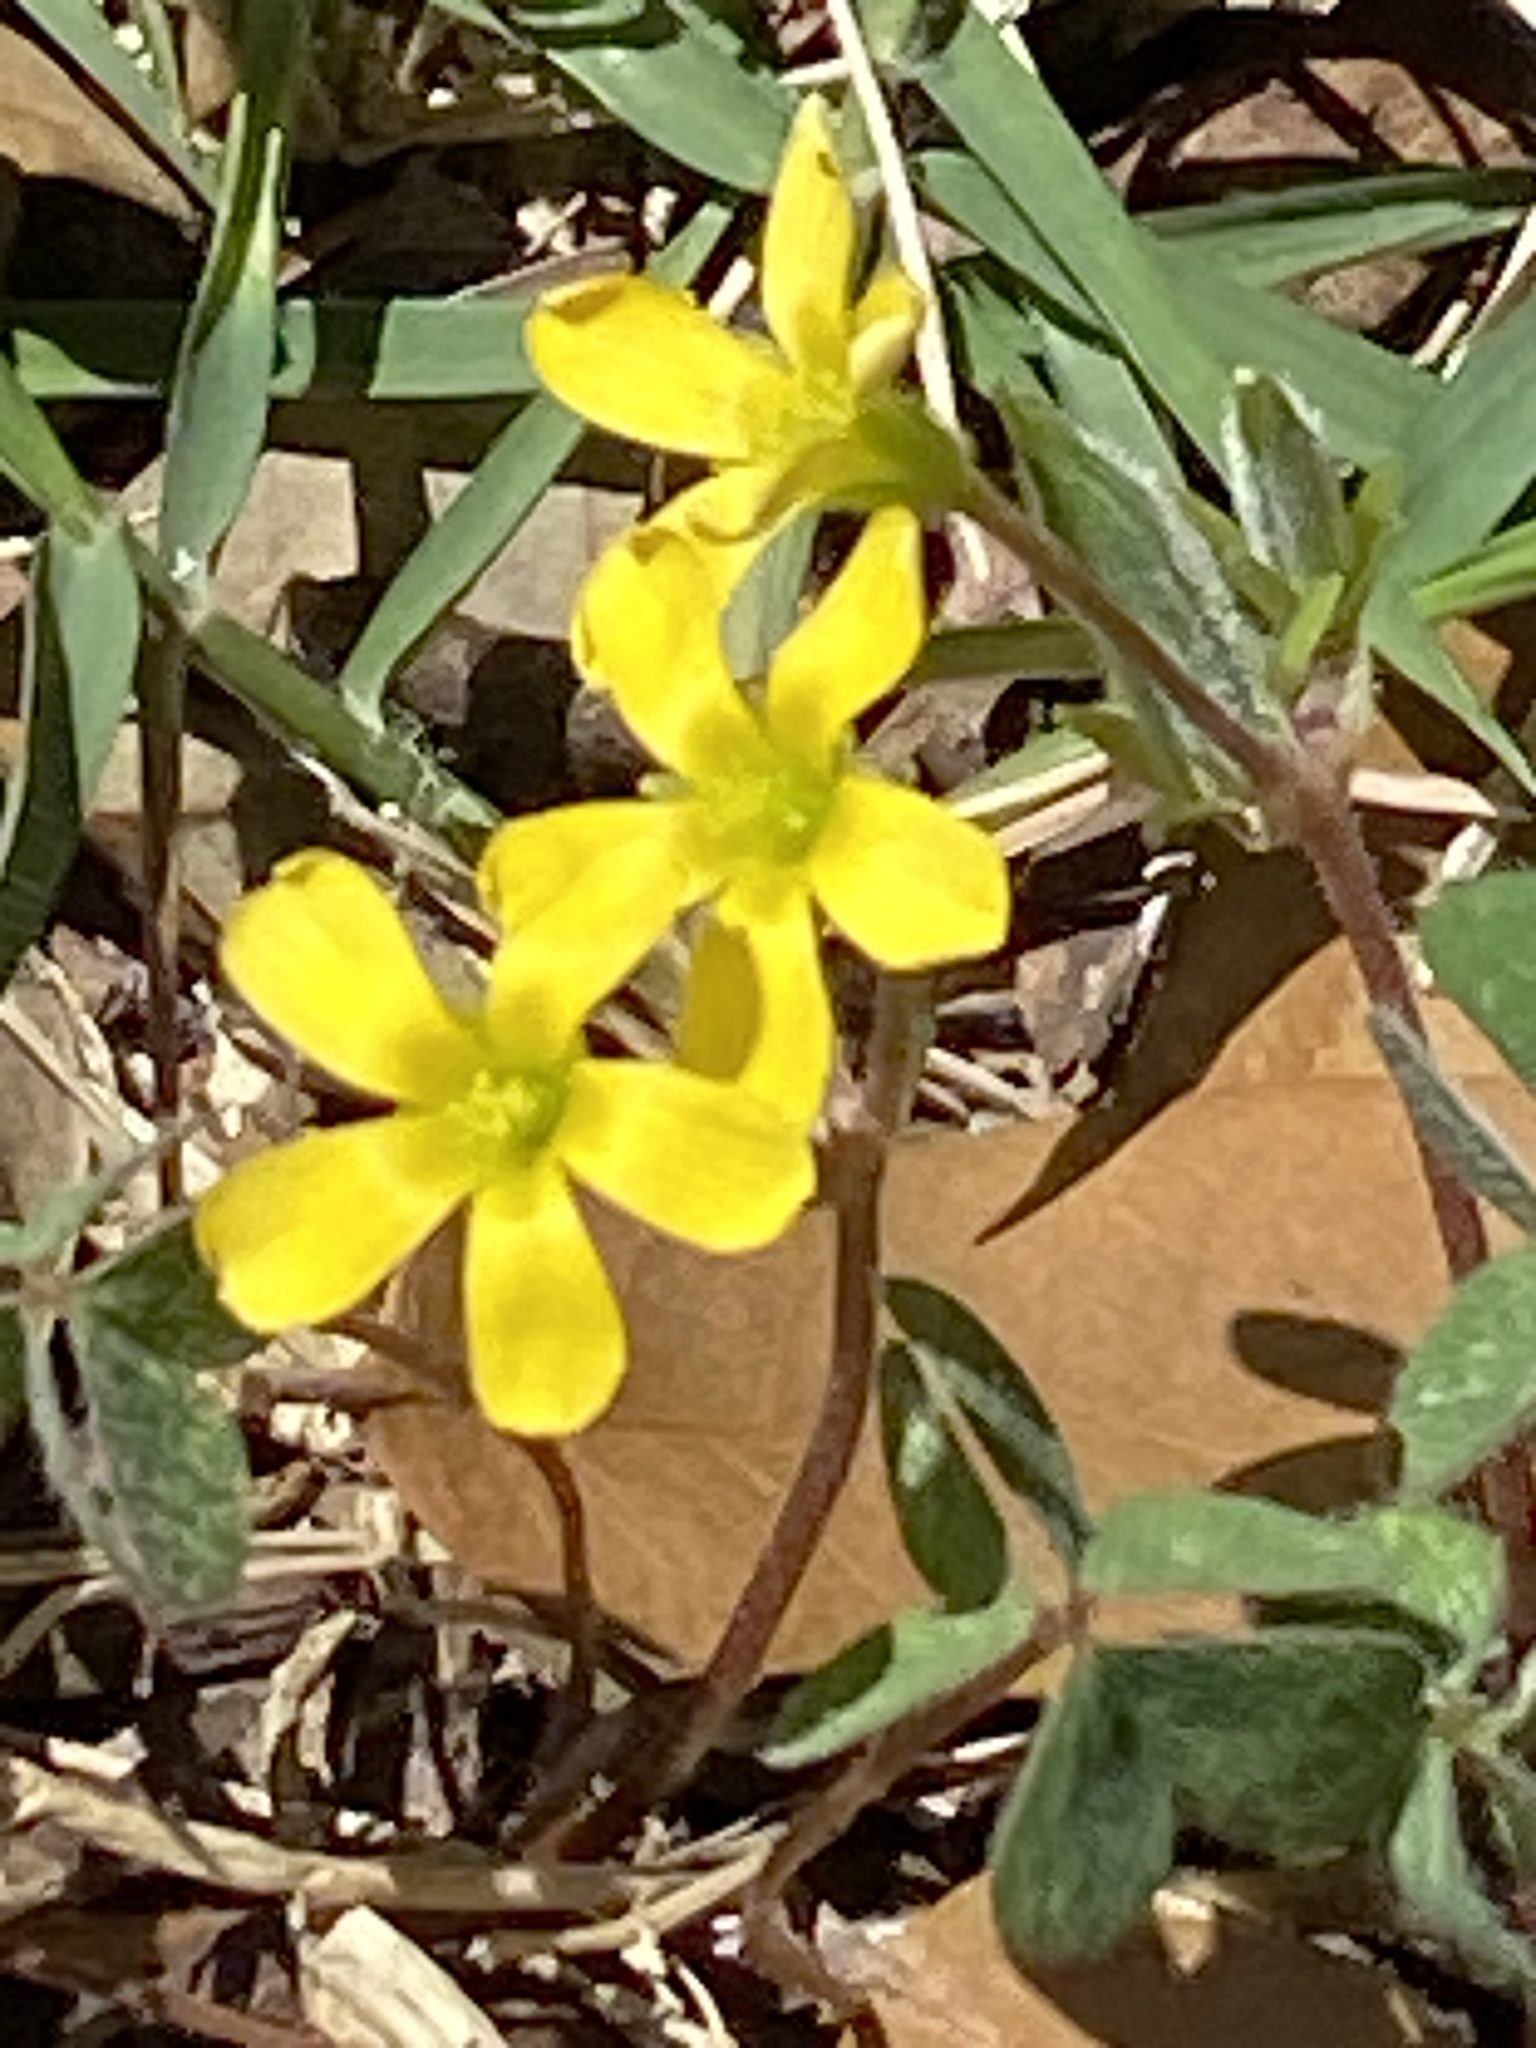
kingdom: Plantae
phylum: Tracheophyta
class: Magnoliopsida
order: Oxalidales
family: Oxalidaceae
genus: Oxalis
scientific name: Oxalis corniculata
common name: Procumbent yellow-sorrel
